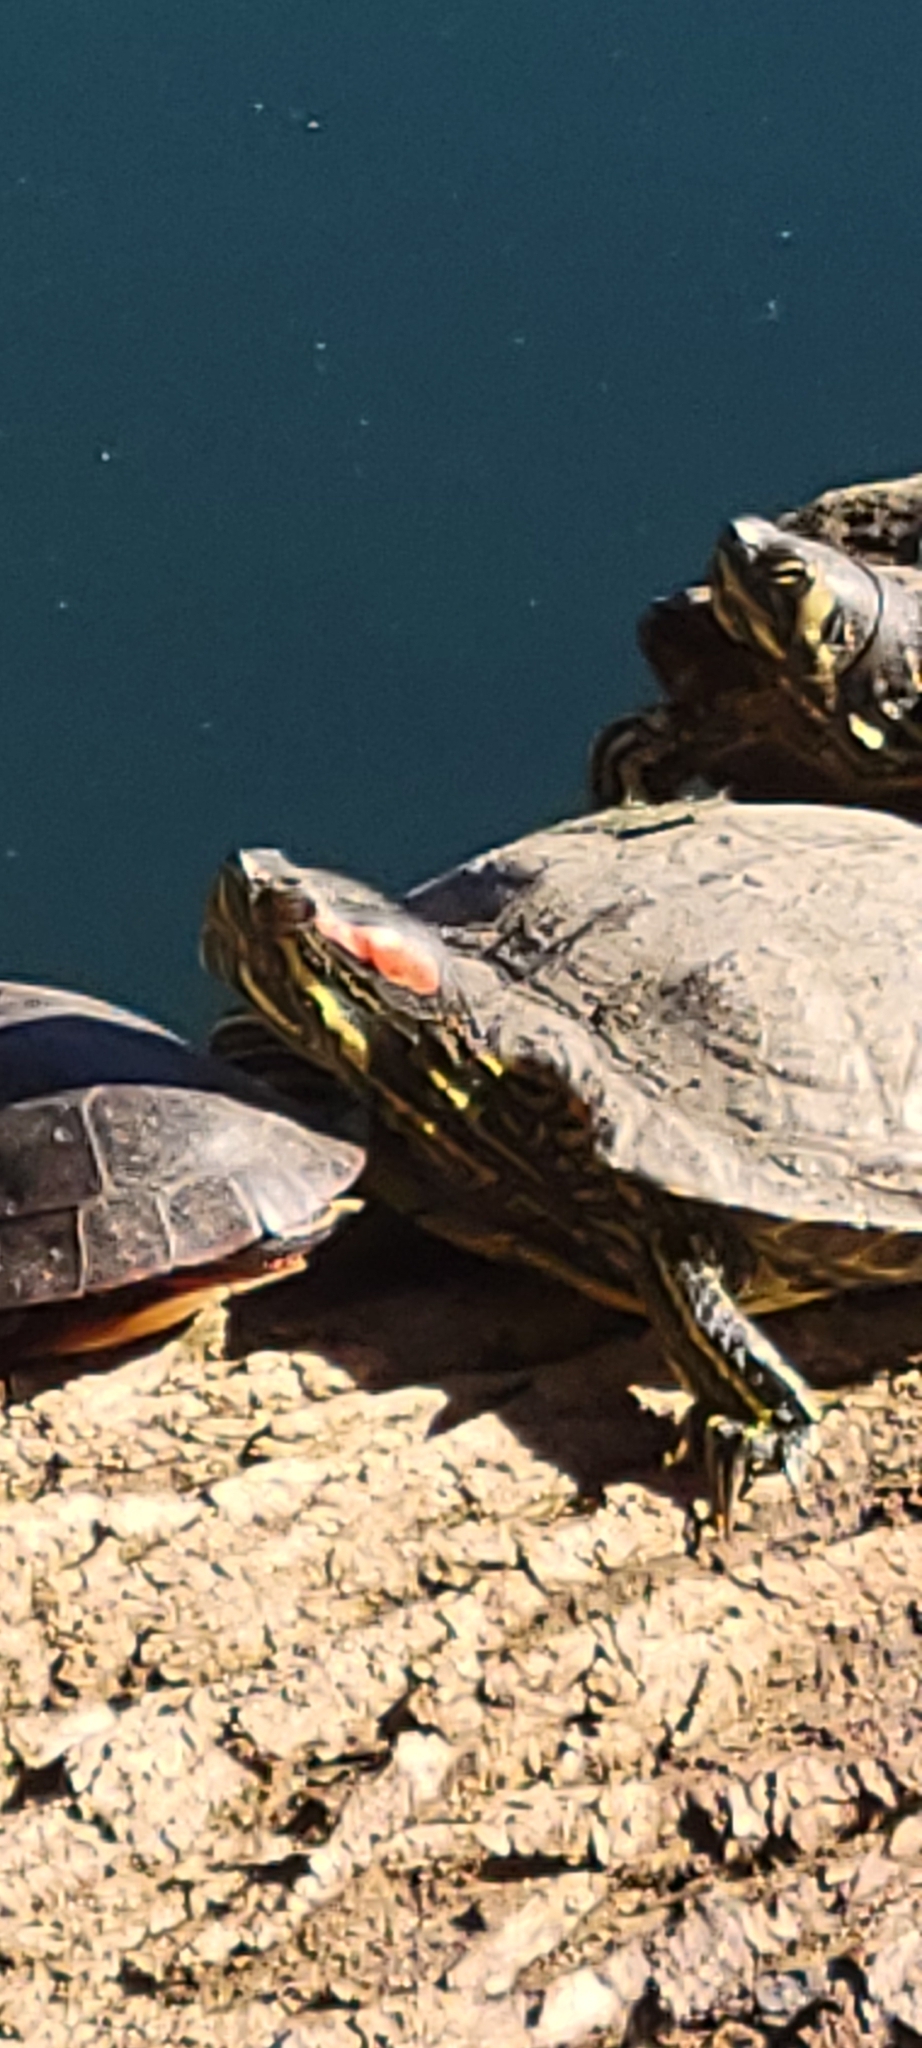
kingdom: Animalia
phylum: Chordata
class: Testudines
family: Emydidae
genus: Trachemys
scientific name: Trachemys scripta
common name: Slider
